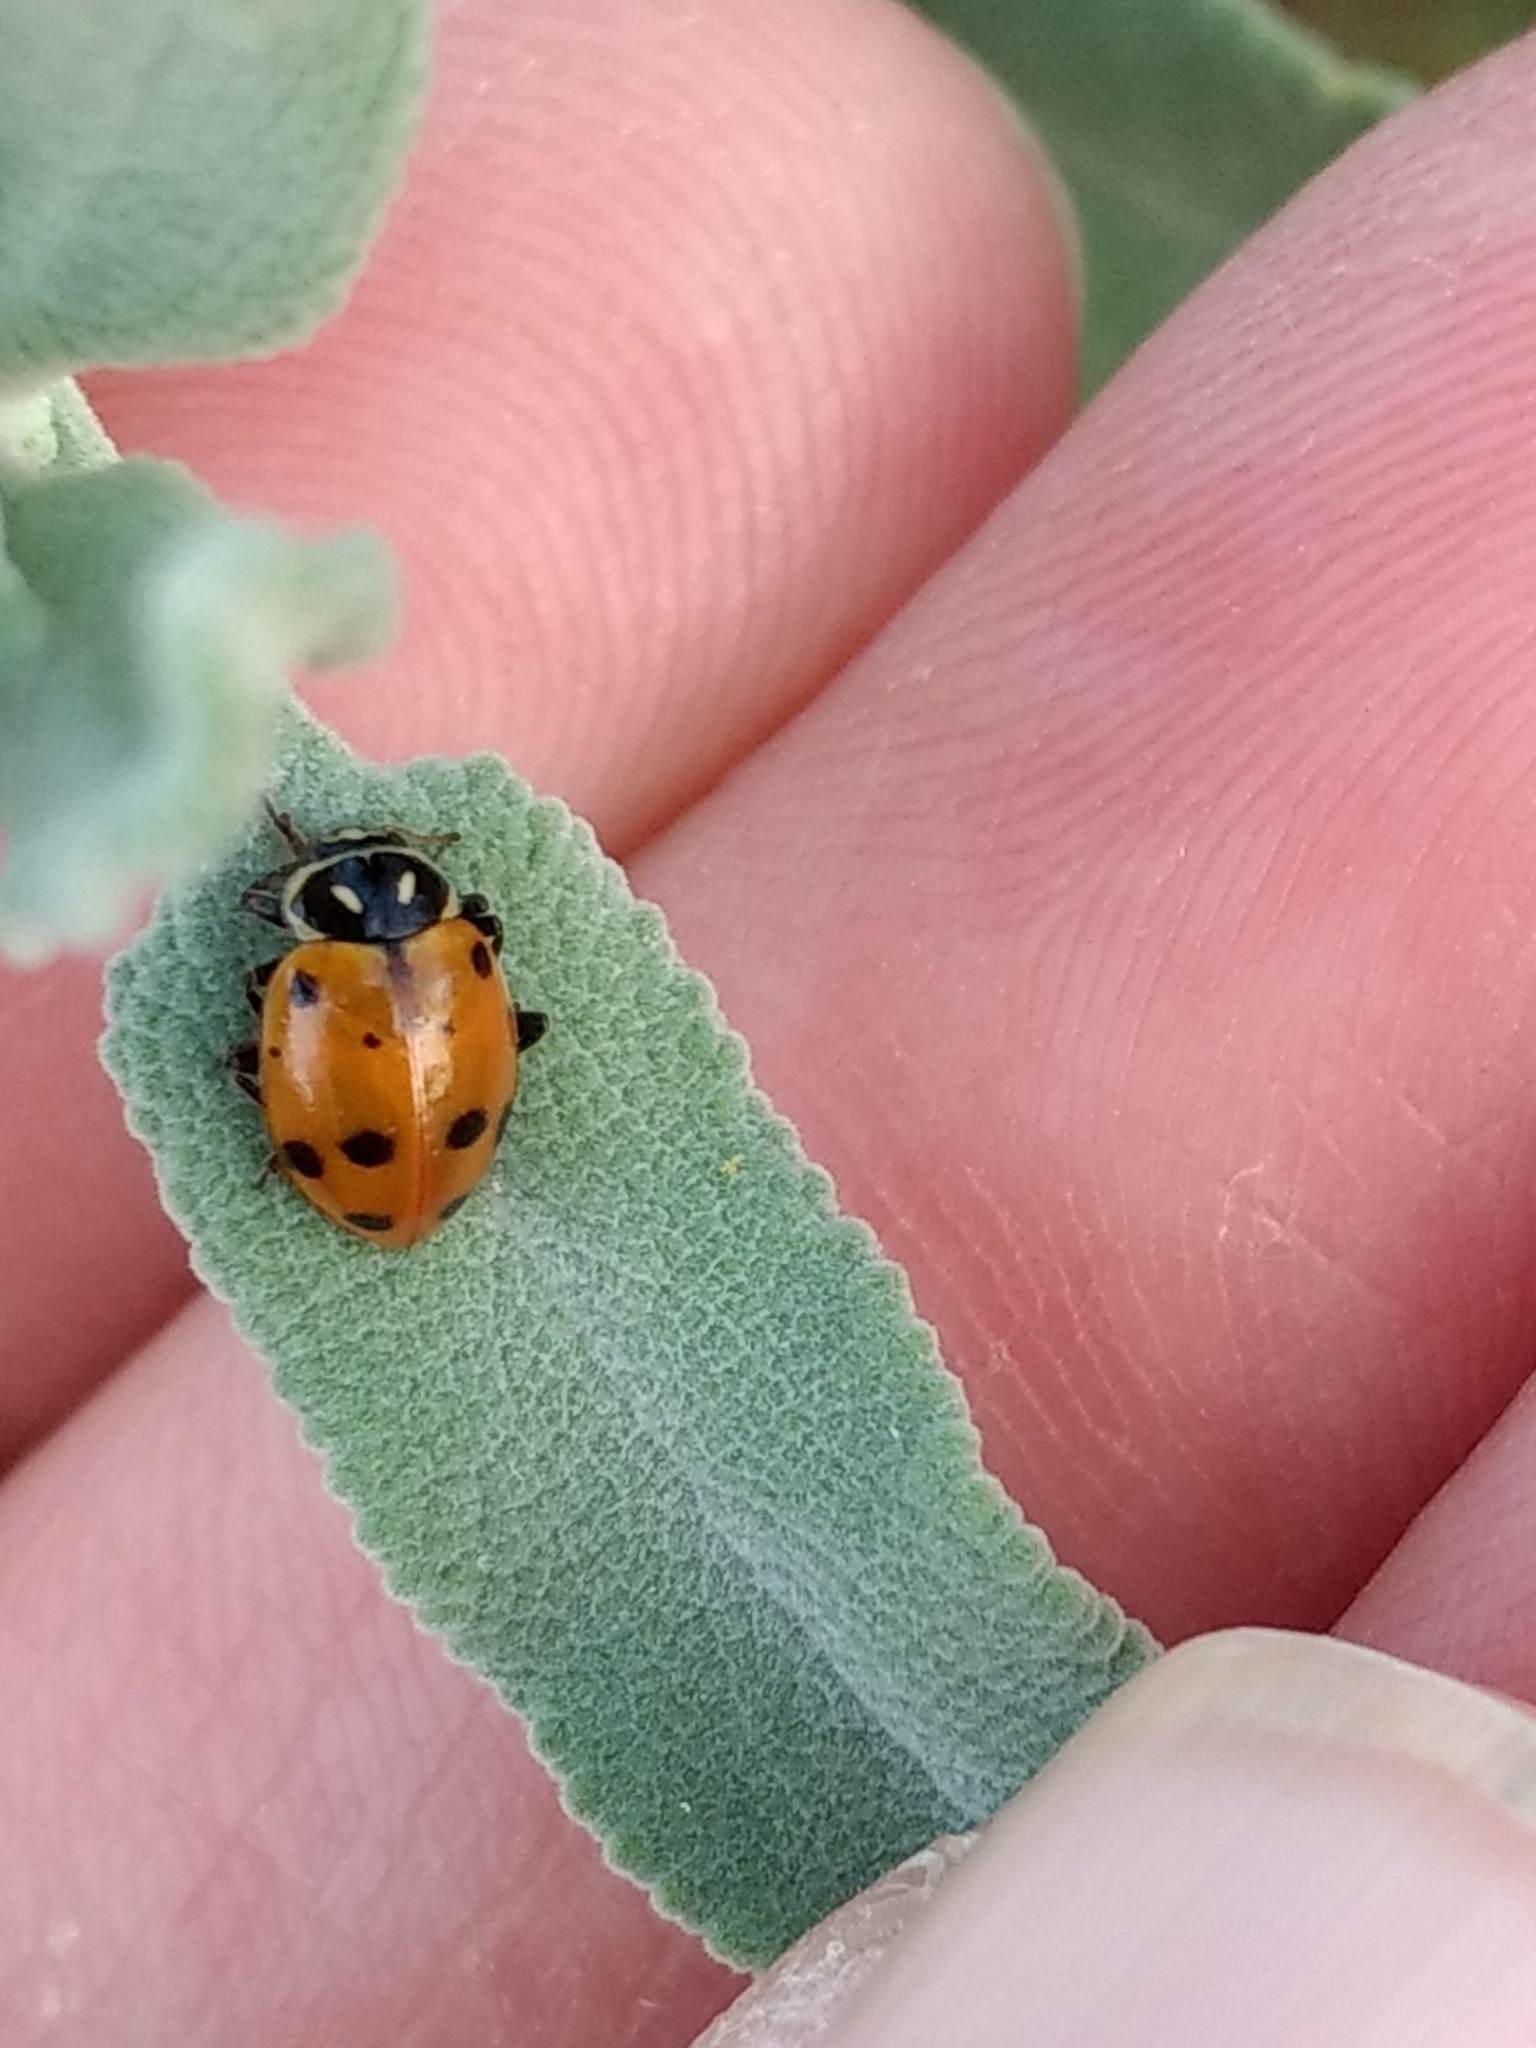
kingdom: Animalia
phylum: Arthropoda
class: Insecta
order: Coleoptera
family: Coccinellidae
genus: Hippodamia
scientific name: Hippodamia convergens
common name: Convergent lady beetle
